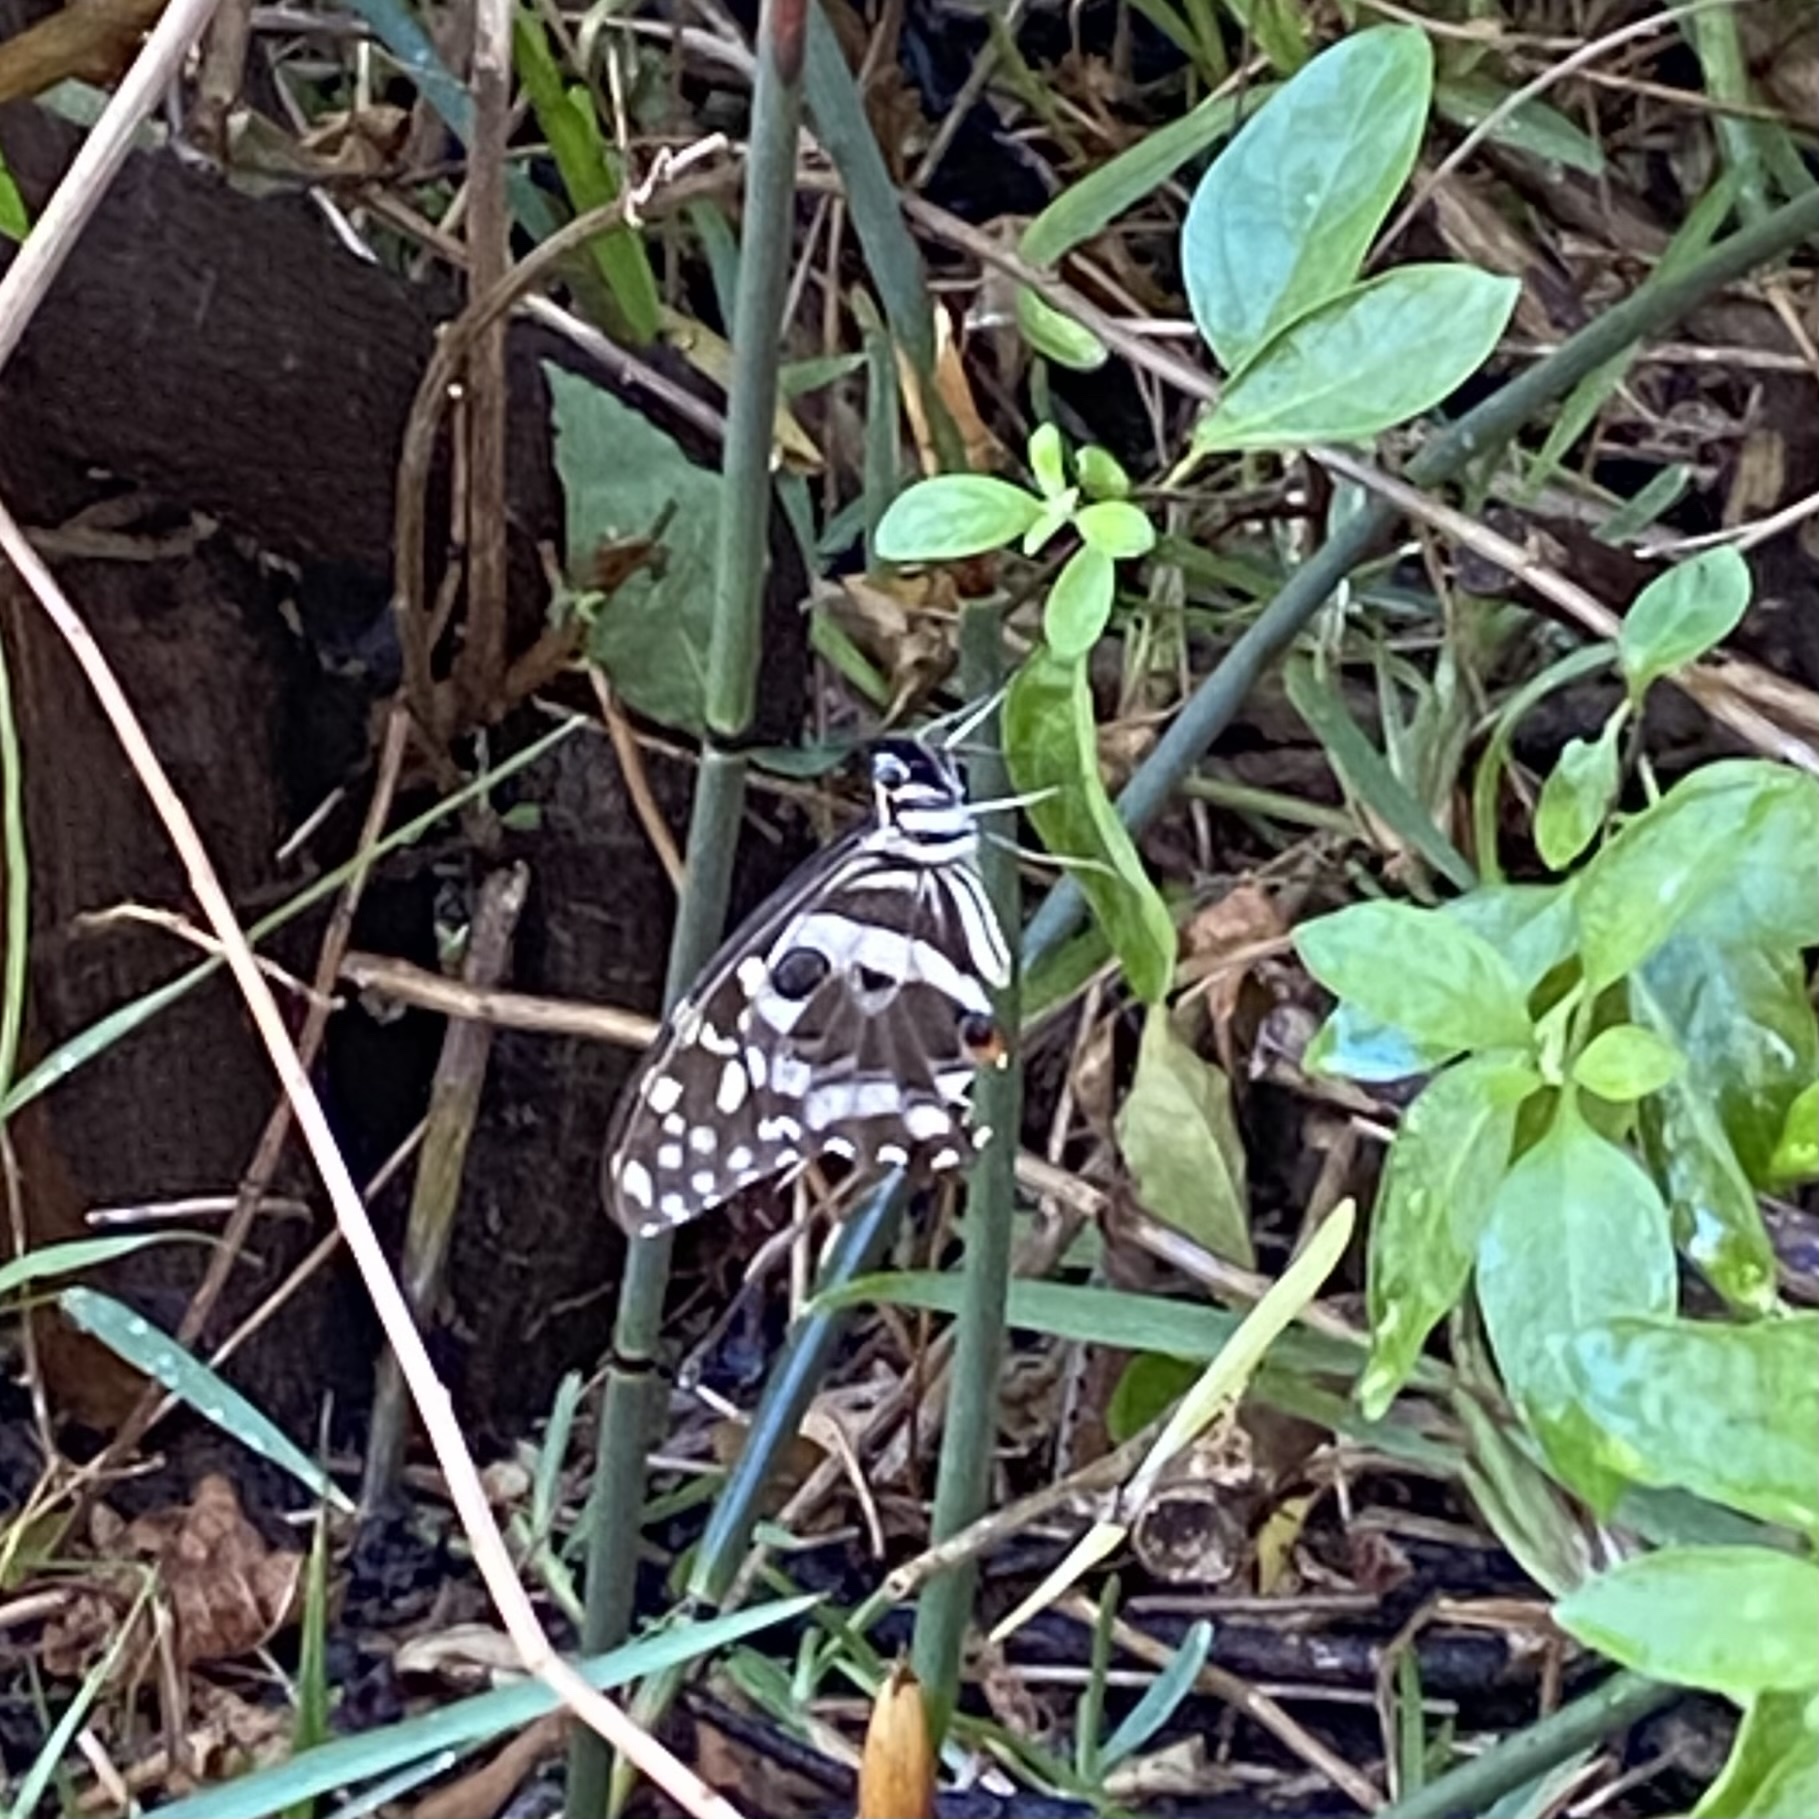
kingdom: Animalia
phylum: Arthropoda
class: Insecta
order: Lepidoptera
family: Papilionidae
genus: Papilio
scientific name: Papilio demodocus
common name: Christmas butterfly
